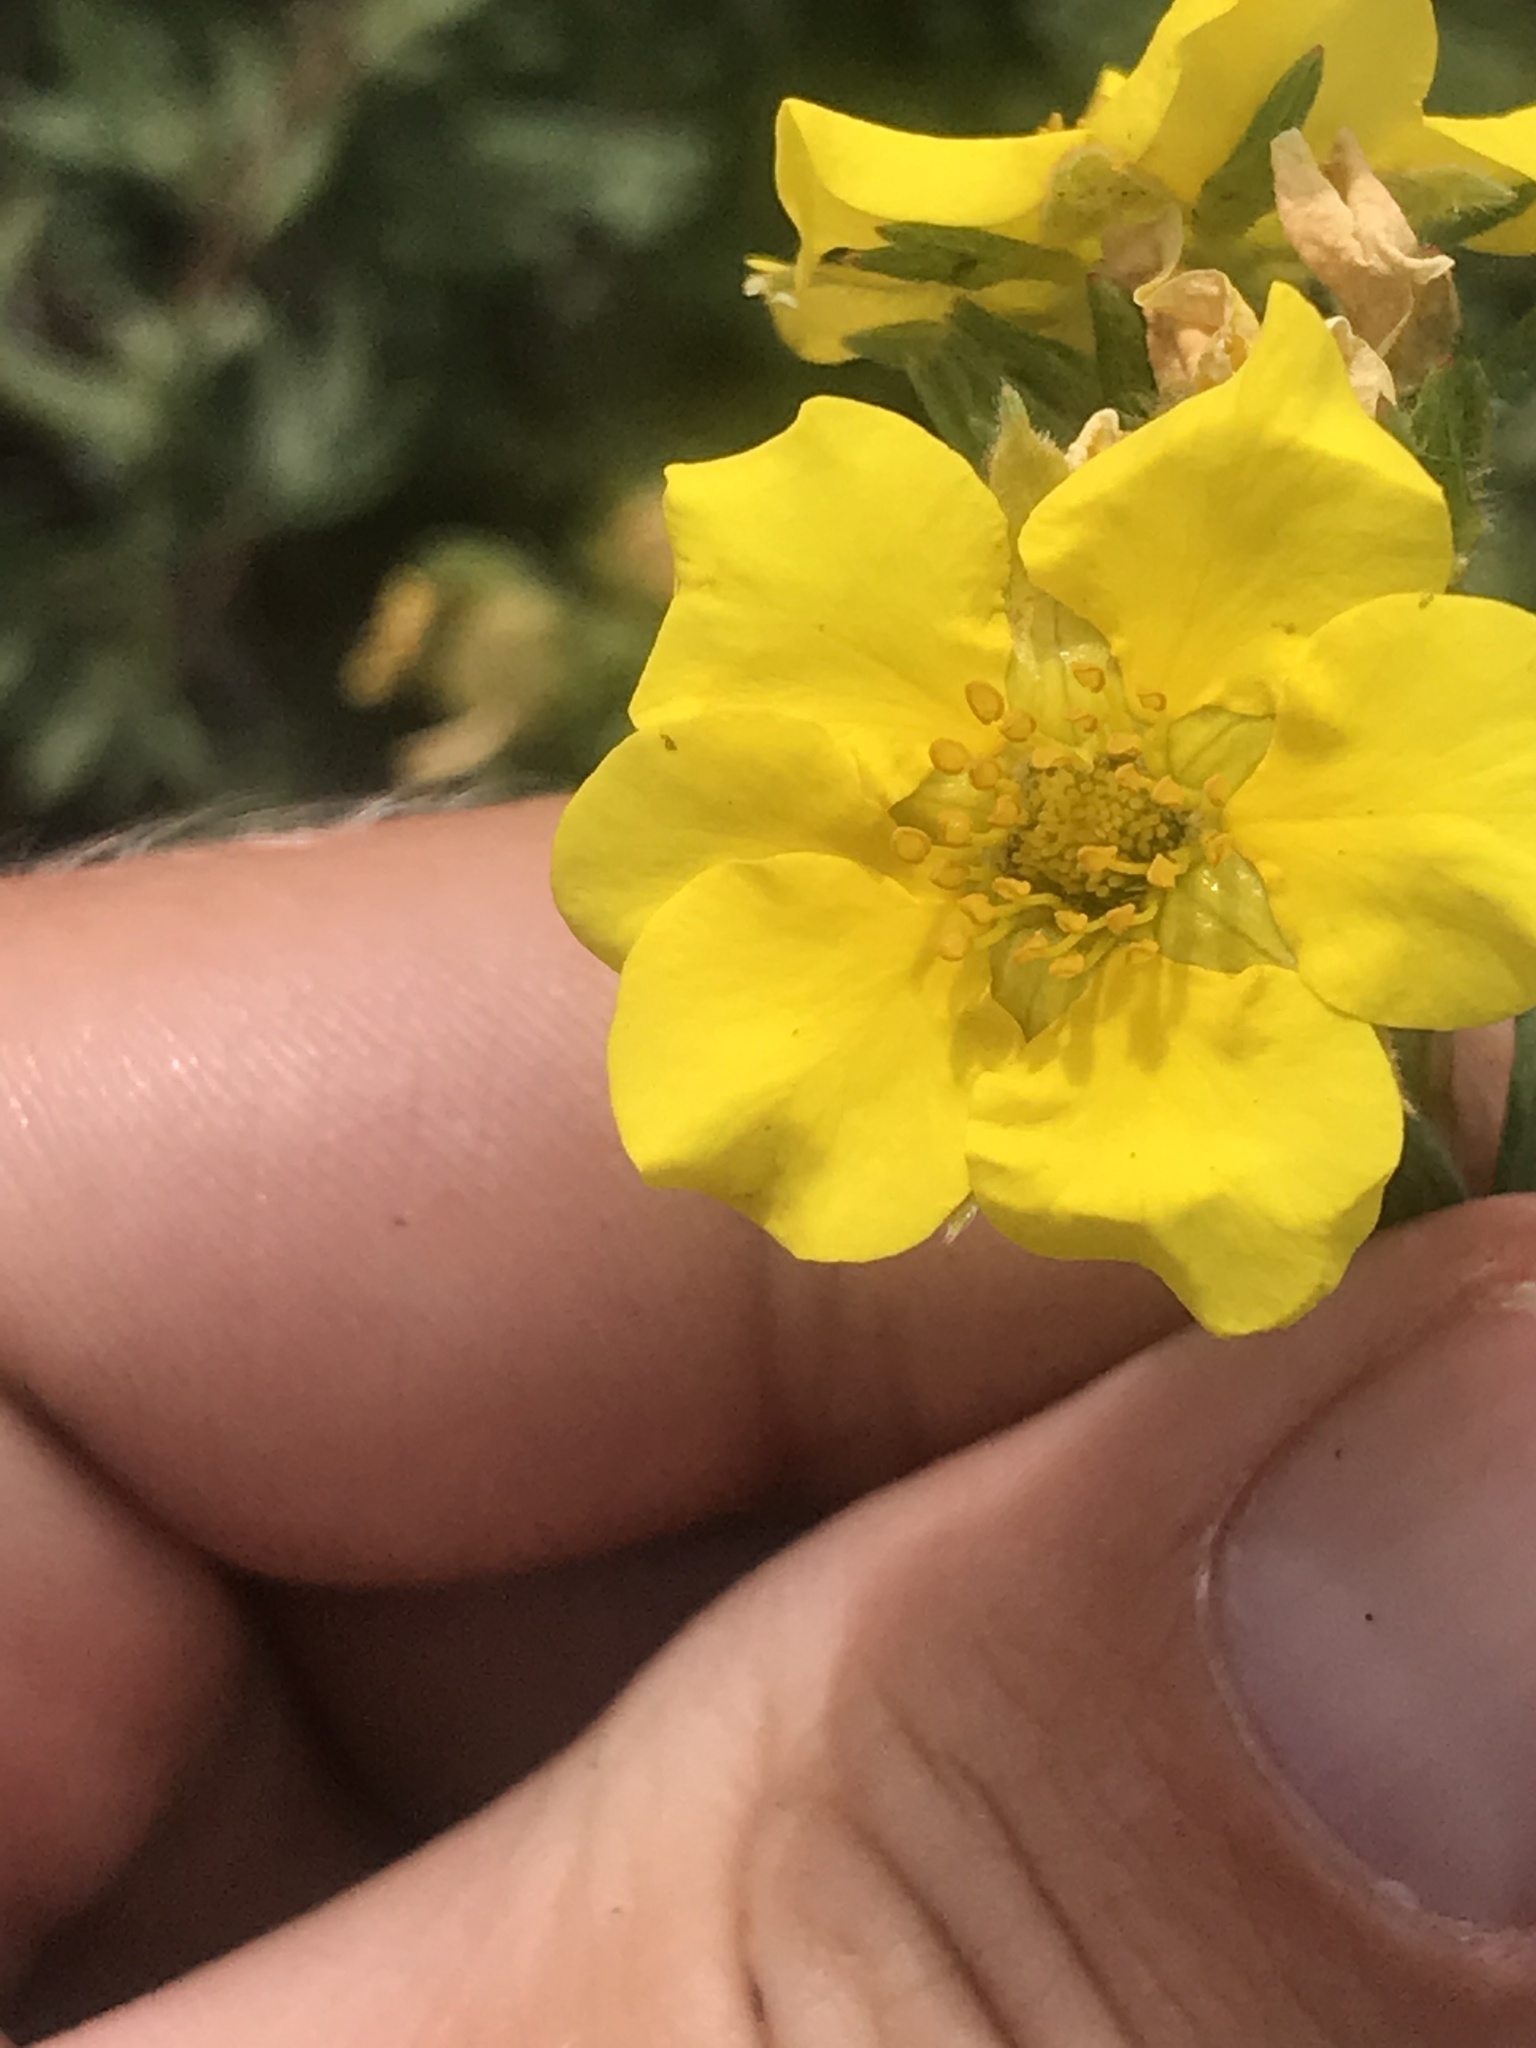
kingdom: Plantae
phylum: Tracheophyta
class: Magnoliopsida
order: Rosales
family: Rosaceae
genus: Dasiphora
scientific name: Dasiphora fruticosa
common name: Shrubby cinquefoil
